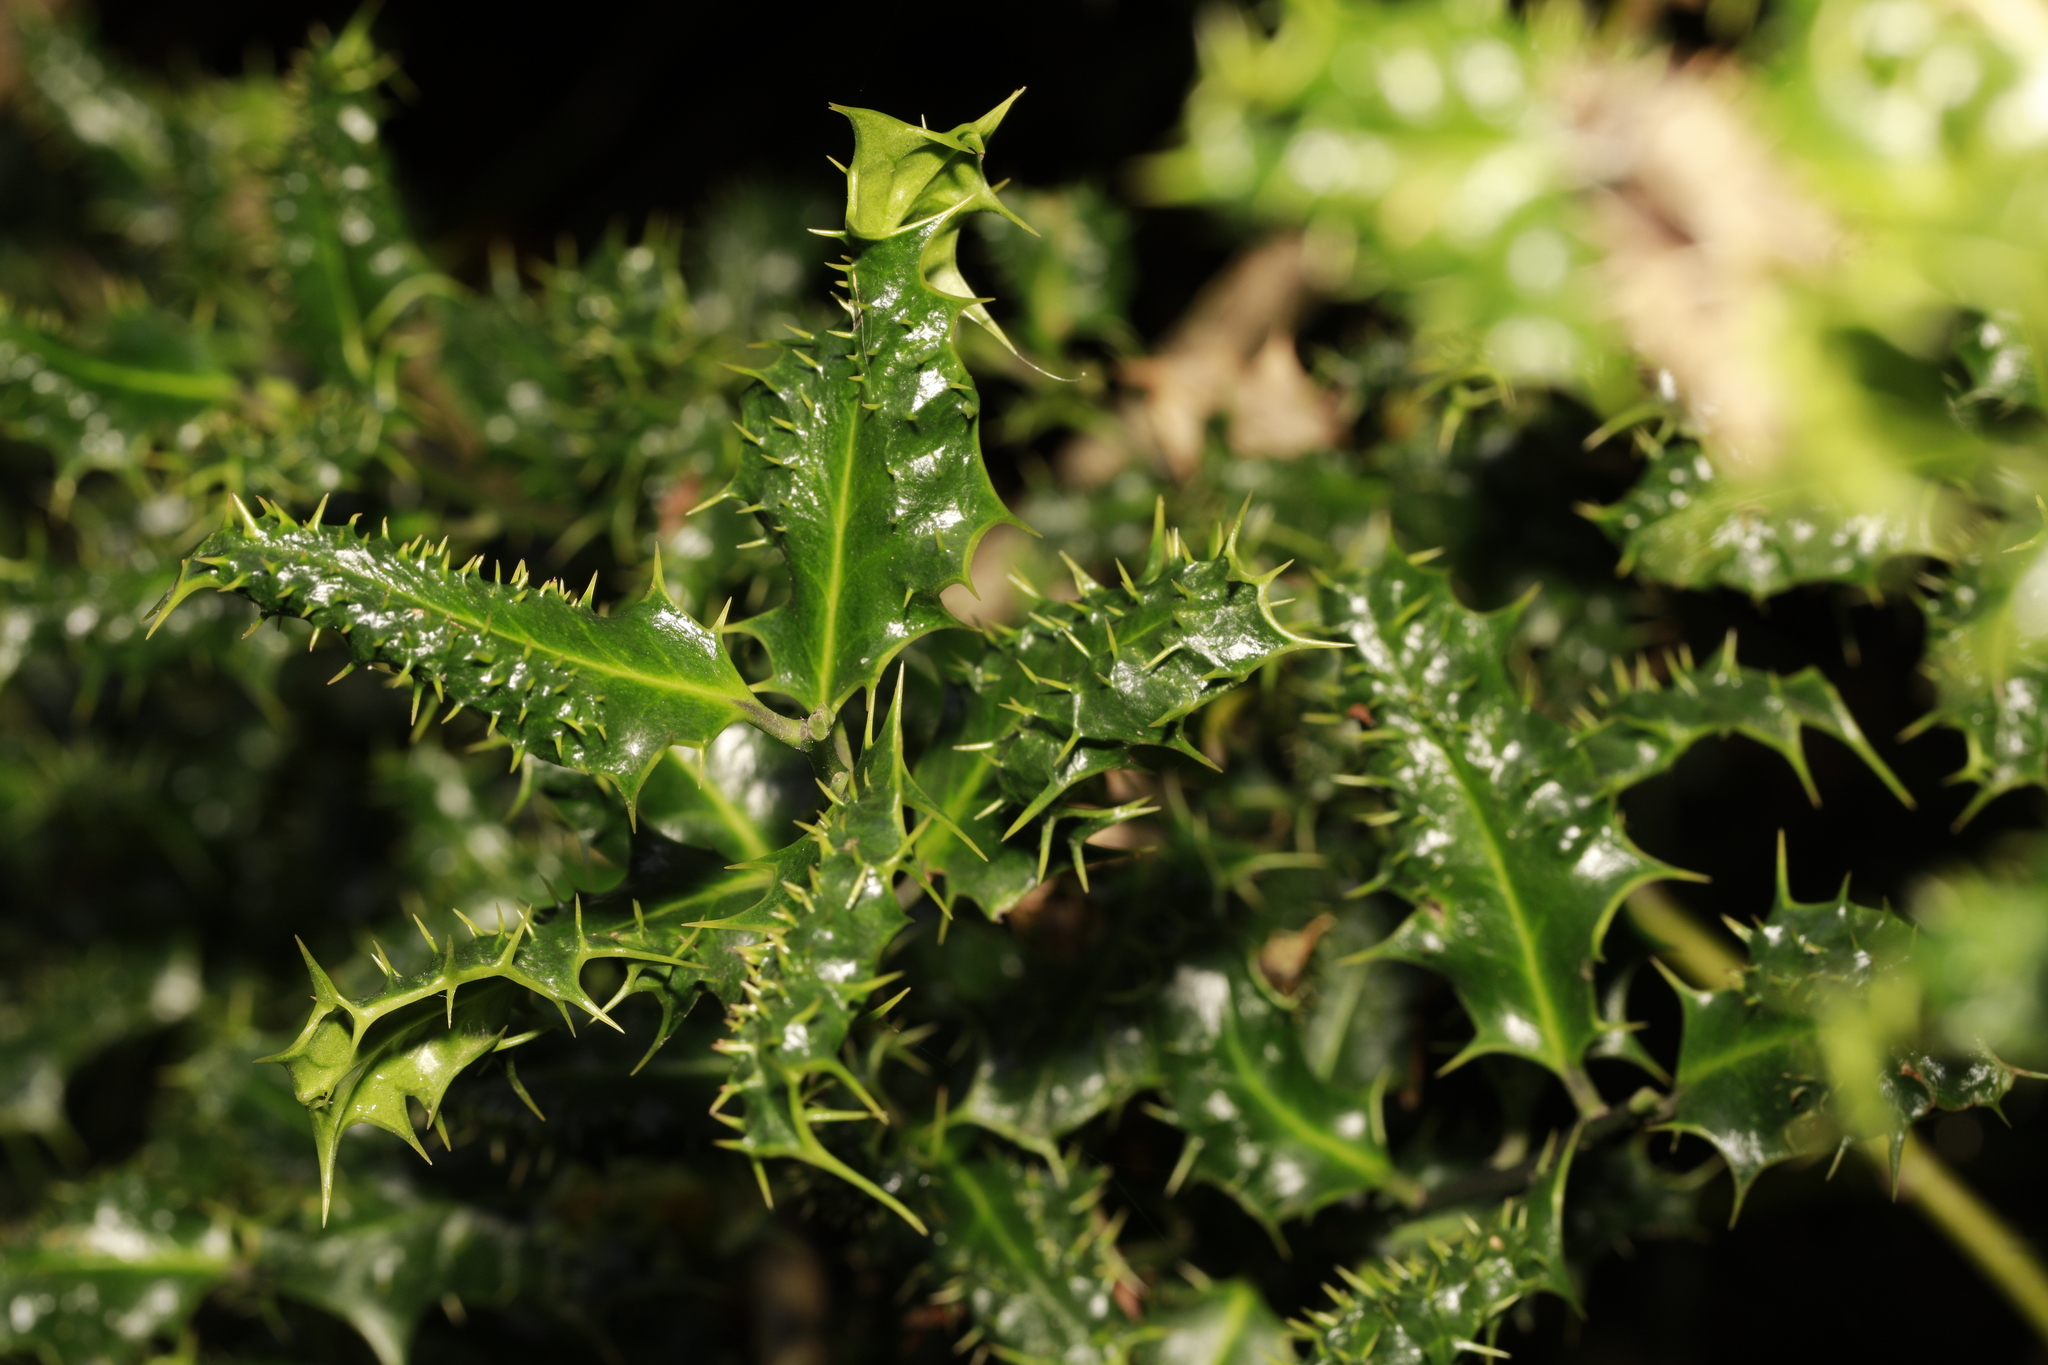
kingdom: Plantae
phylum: Tracheophyta
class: Magnoliopsida
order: Aquifoliales
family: Aquifoliaceae
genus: Ilex
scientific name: Ilex aquifolium
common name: English holly
